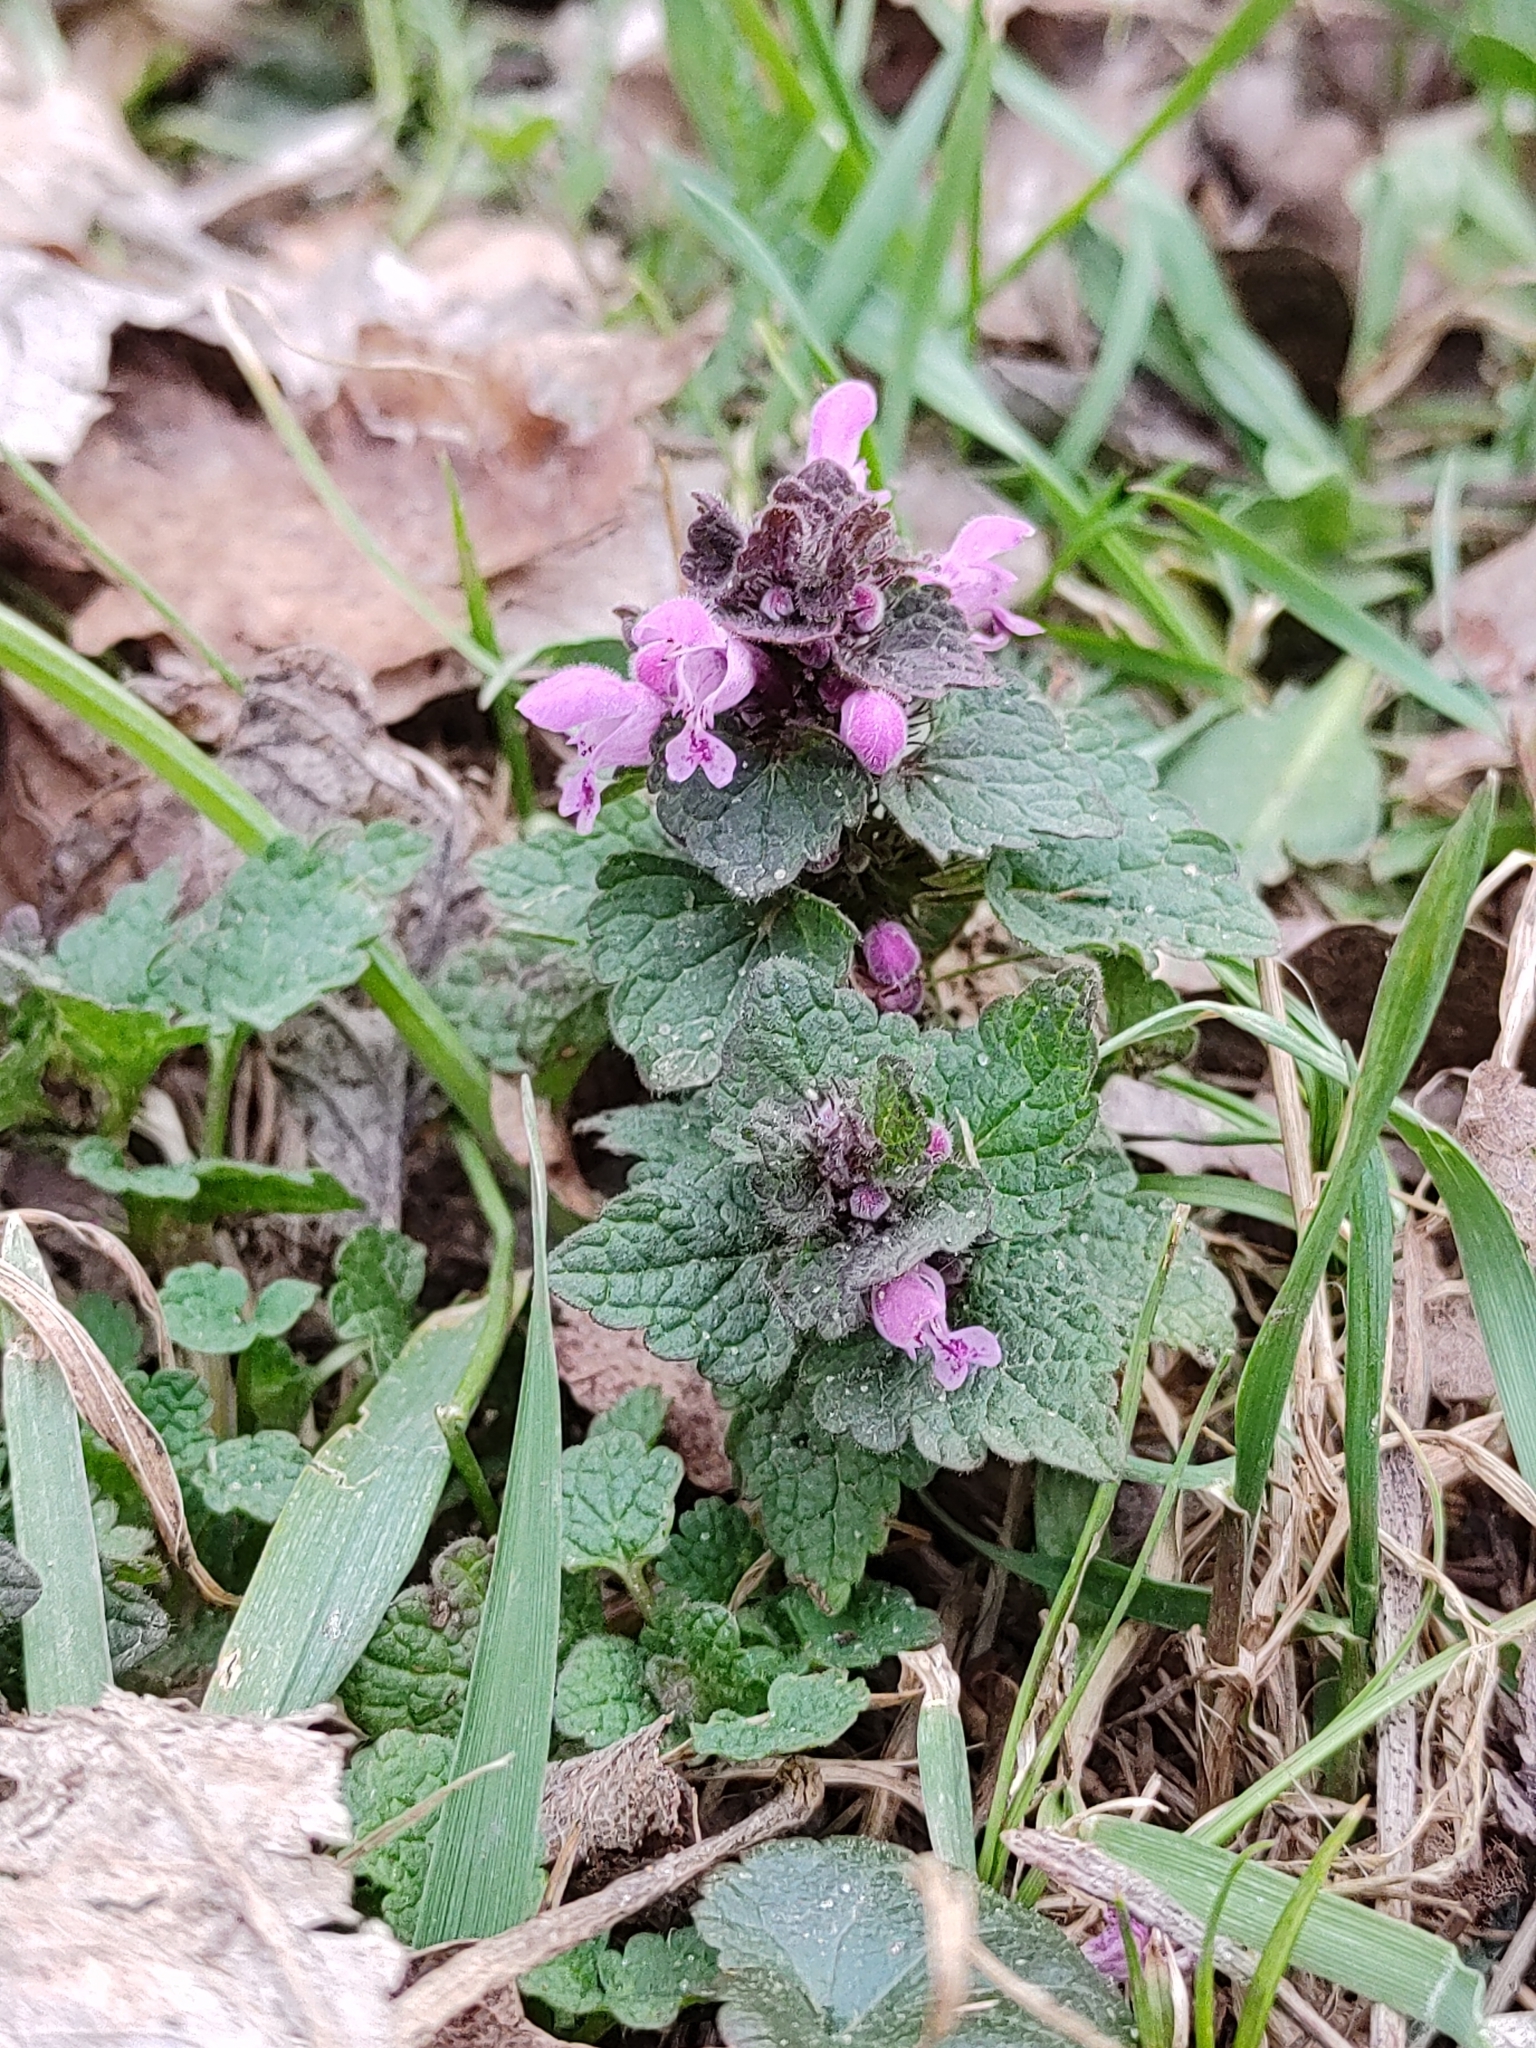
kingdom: Plantae
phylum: Tracheophyta
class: Magnoliopsida
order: Lamiales
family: Lamiaceae
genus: Lamium
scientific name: Lamium purpureum
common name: Red dead-nettle
